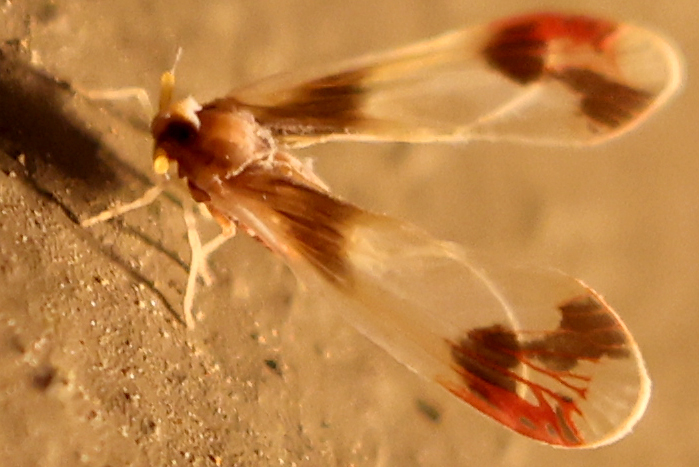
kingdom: Animalia
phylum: Arthropoda
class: Insecta
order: Hemiptera
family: Derbidae
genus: Anotia
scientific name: Anotia uhleri
